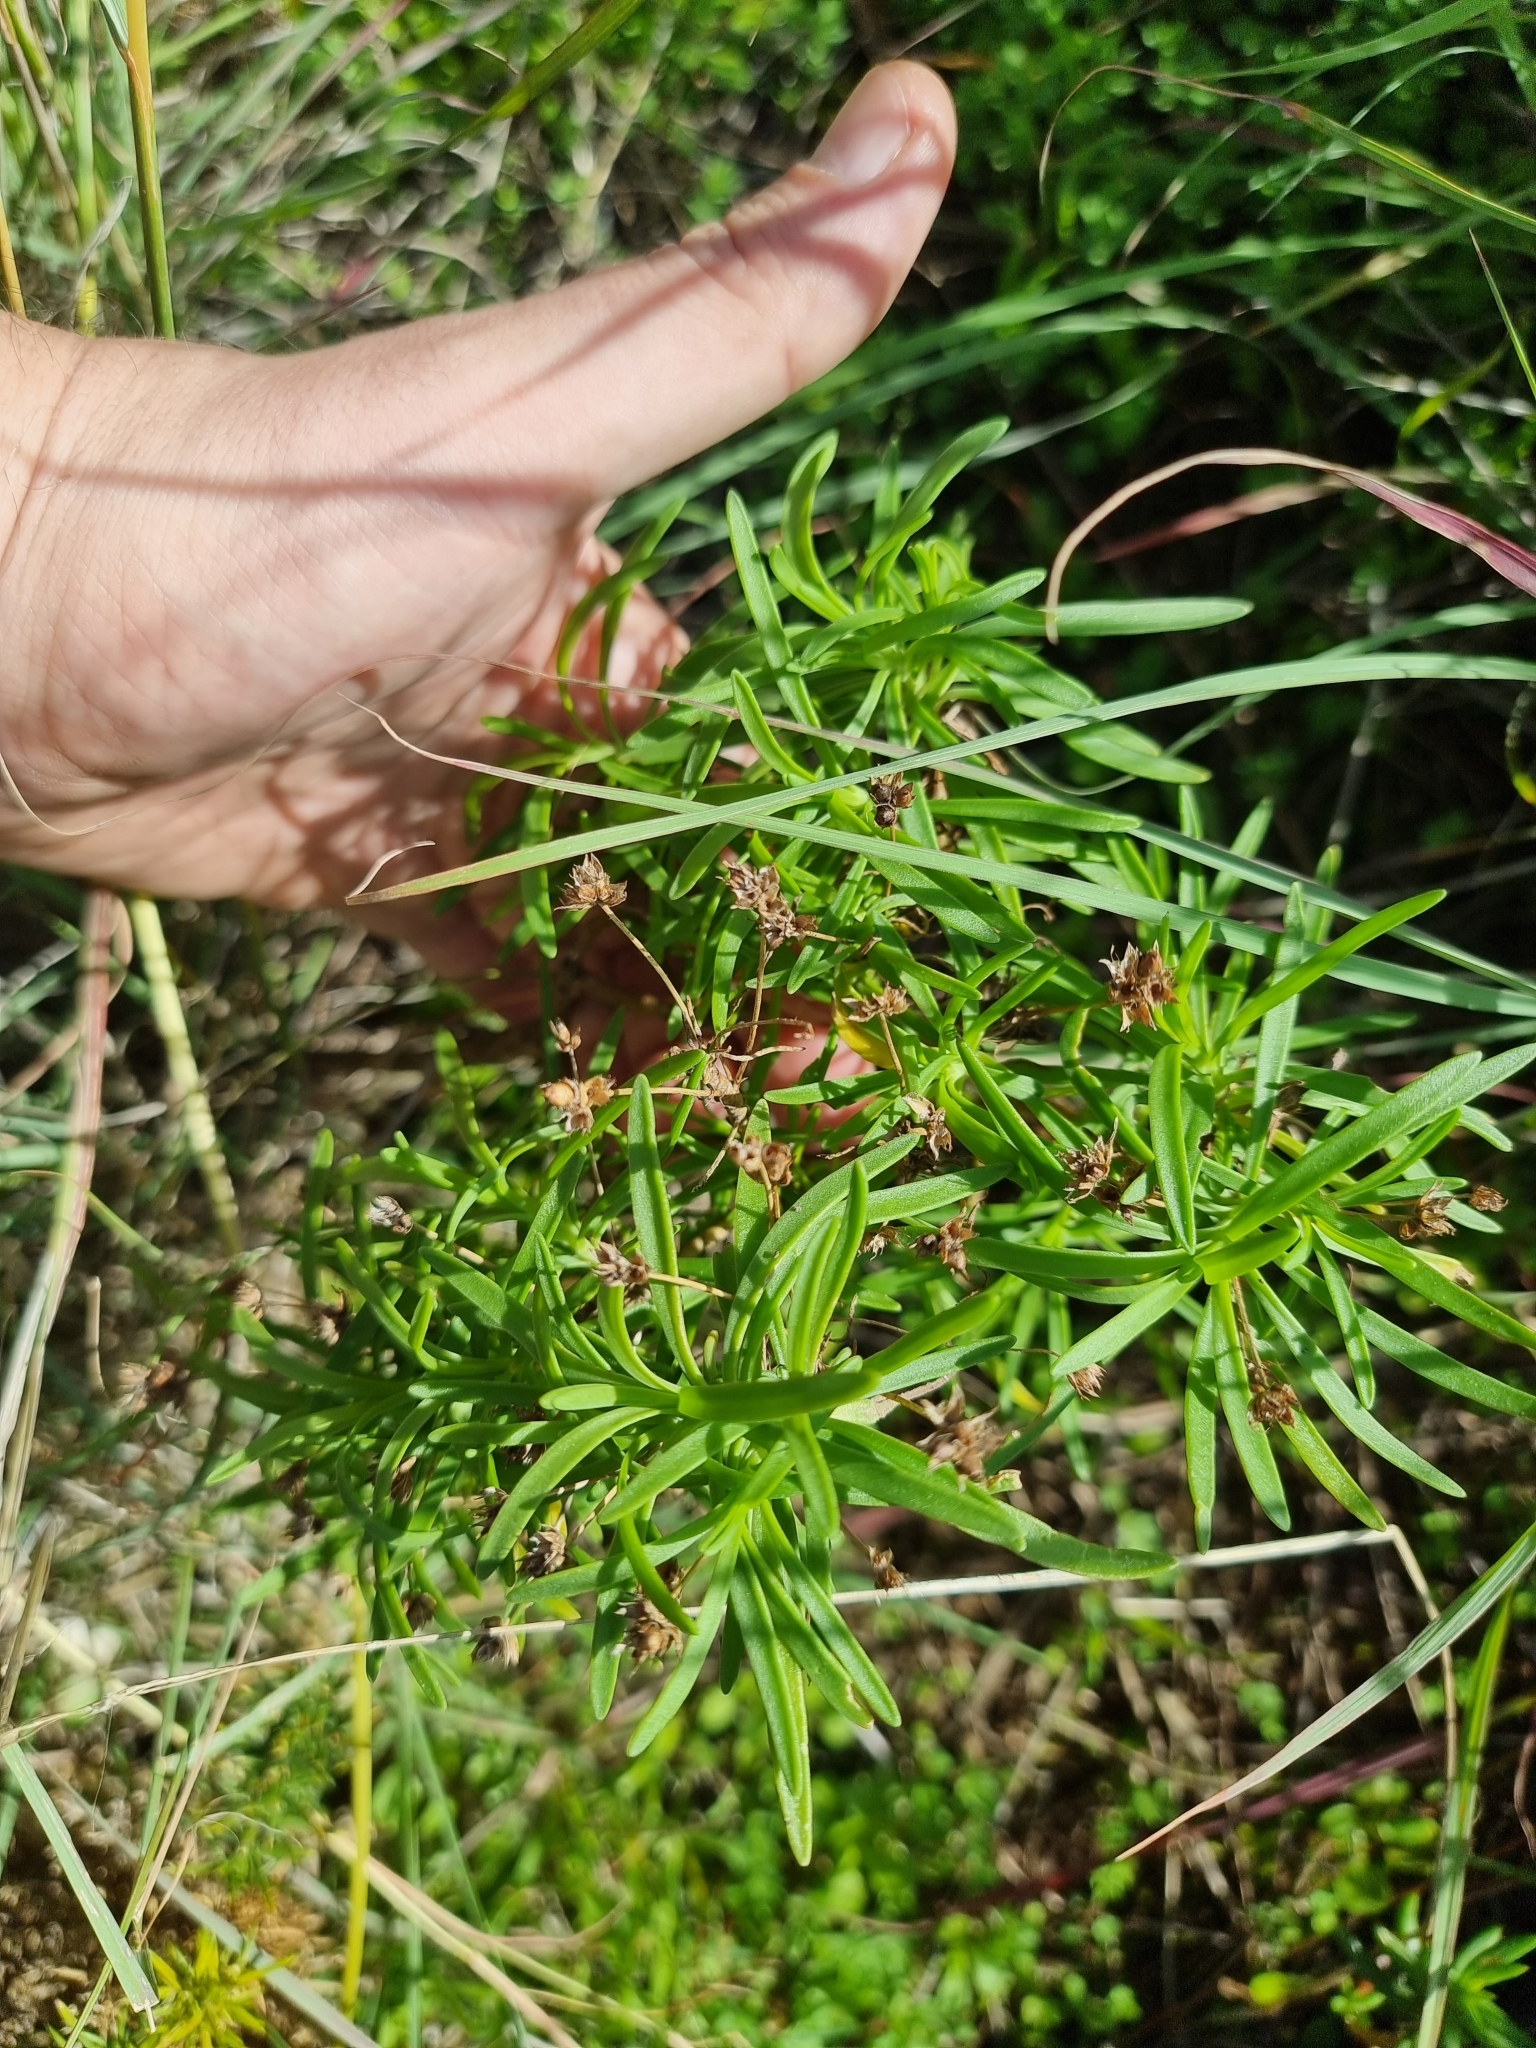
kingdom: Plantae
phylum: Tracheophyta
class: Magnoliopsida
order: Lamiales
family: Plantaginaceae
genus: Plantago
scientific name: Plantago arborescens
